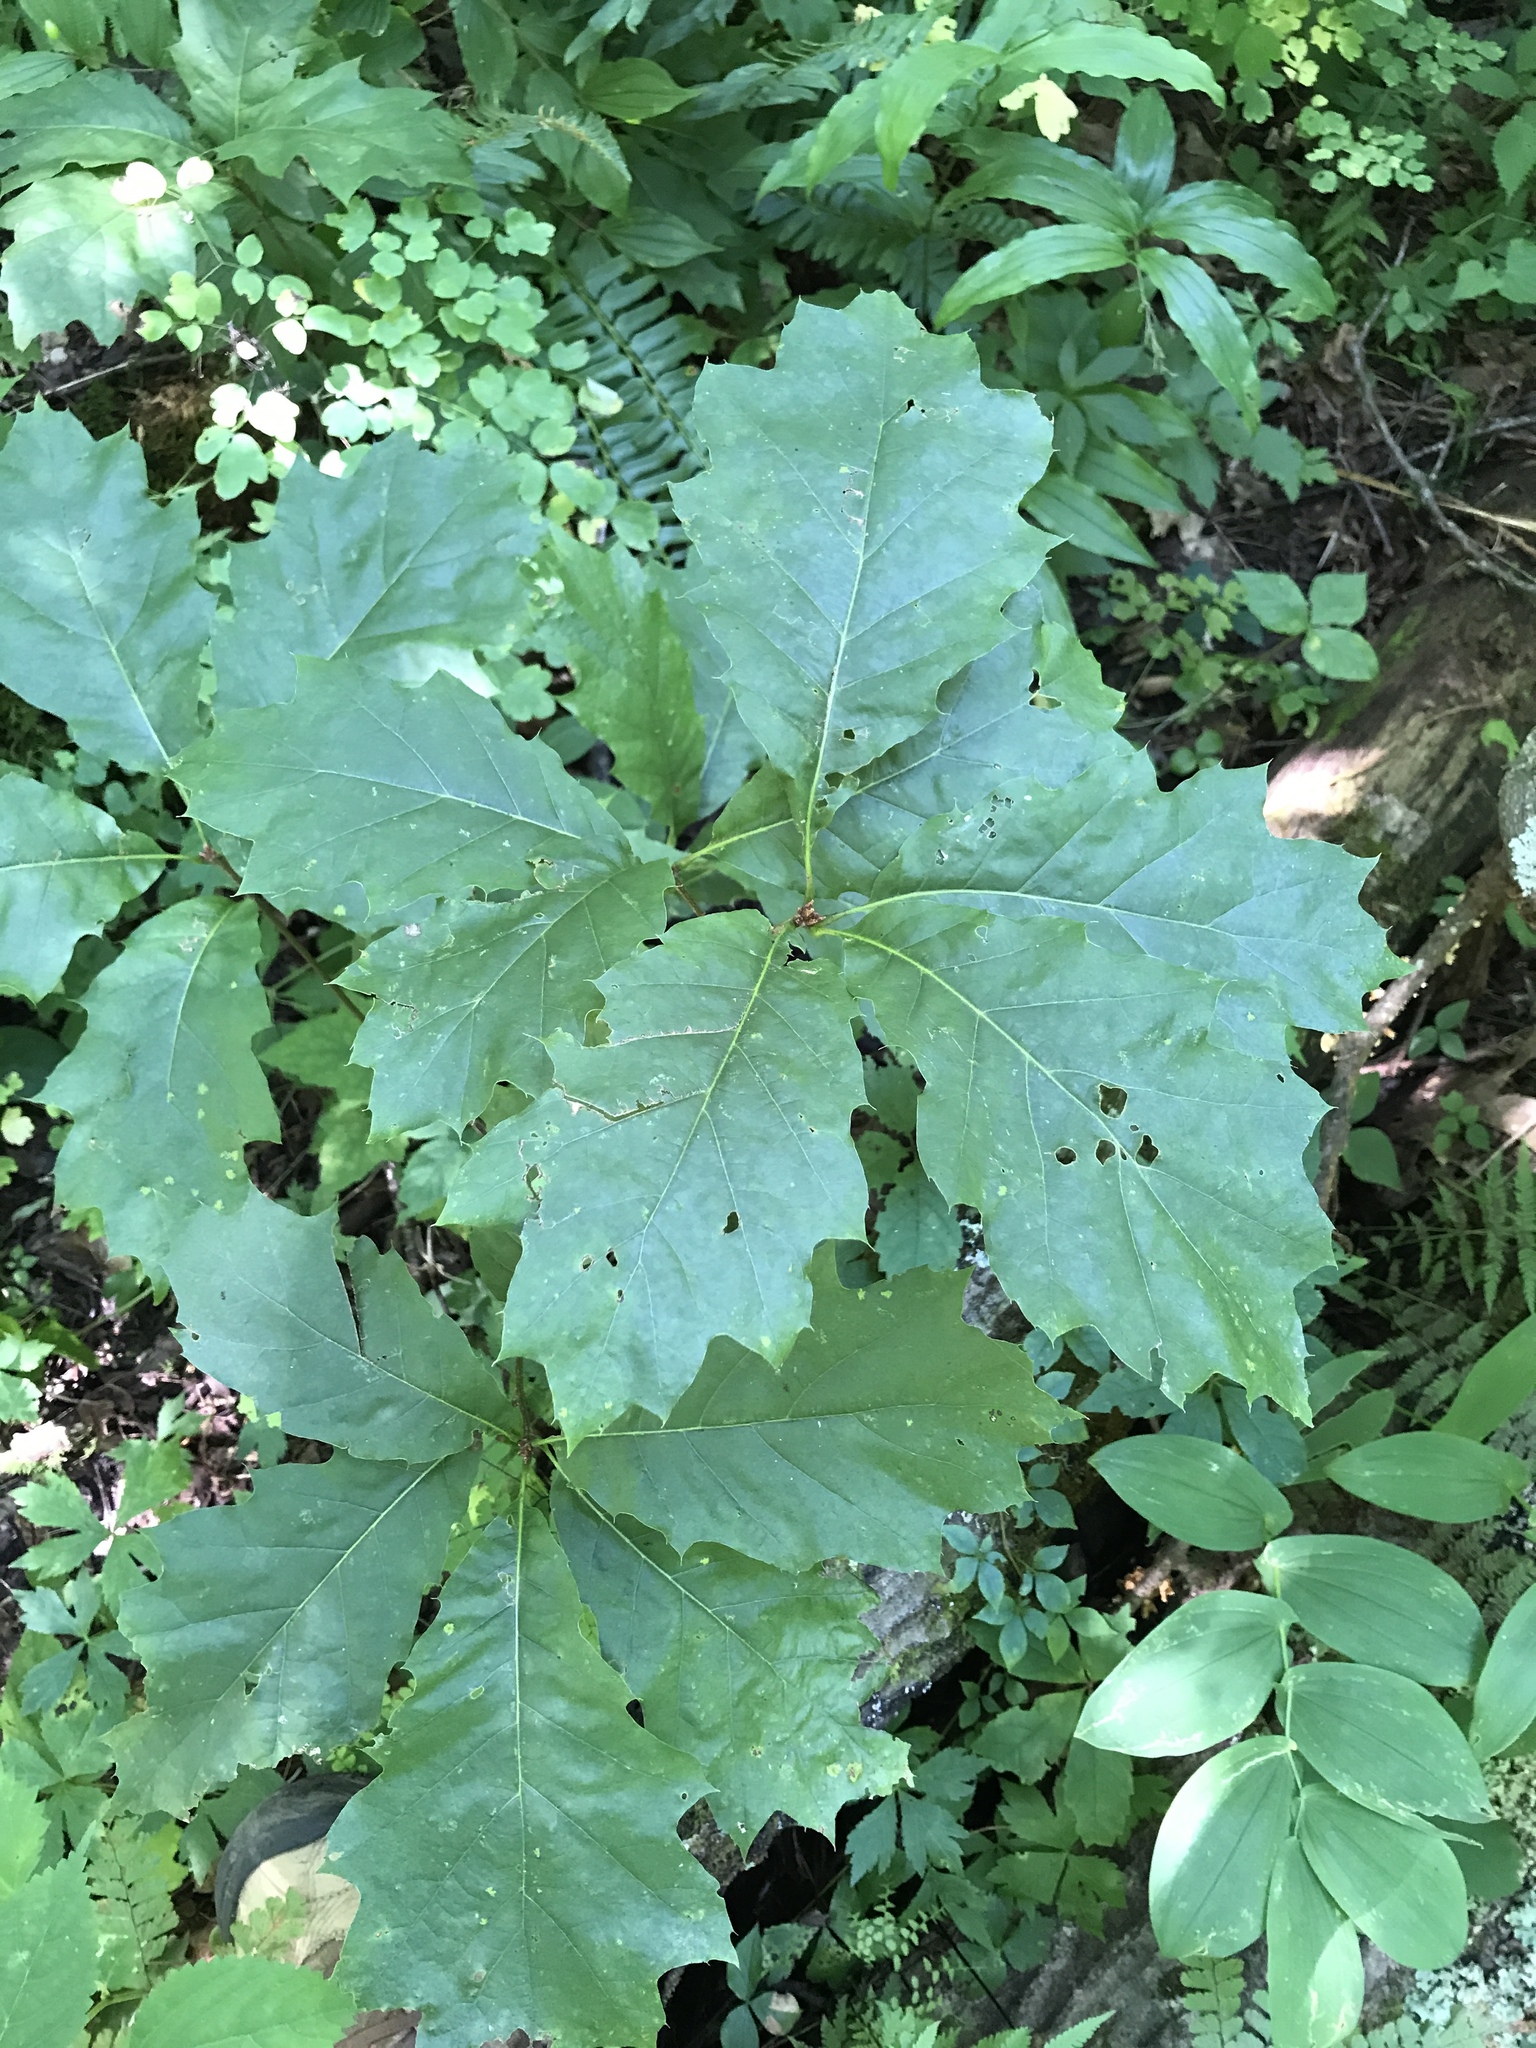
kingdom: Plantae
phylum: Tracheophyta
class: Magnoliopsida
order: Fagales
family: Fagaceae
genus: Quercus
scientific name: Quercus rubra
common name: Red oak
